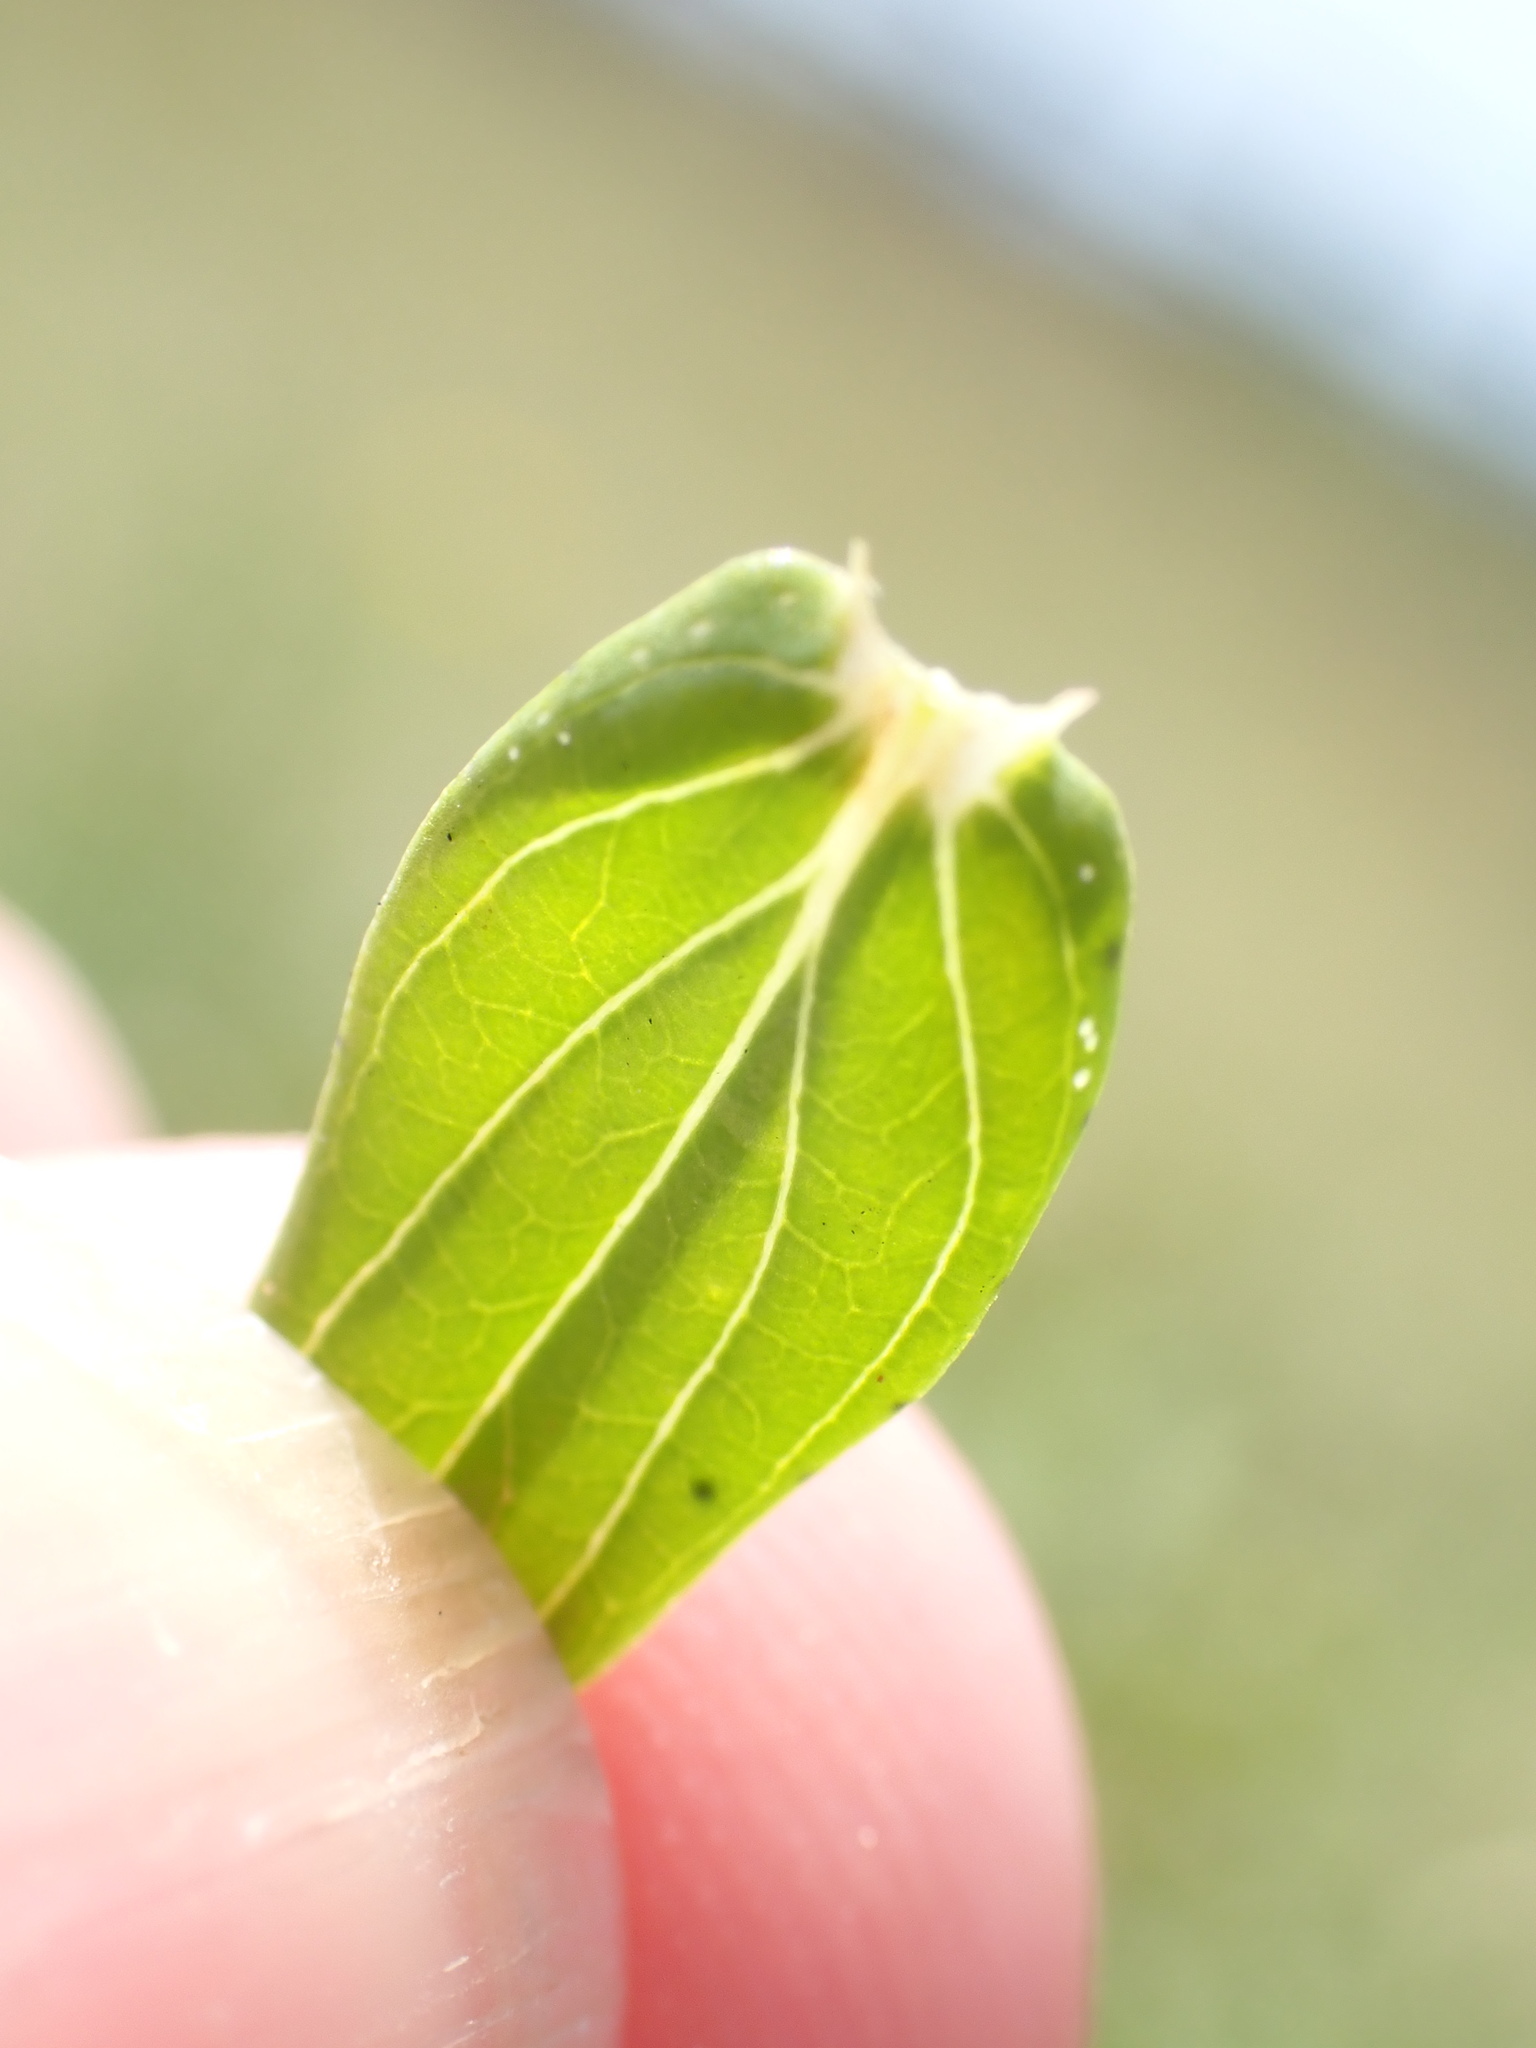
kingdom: Plantae
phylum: Tracheophyta
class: Magnoliopsida
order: Malpighiales
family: Hypericaceae
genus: Hypericum
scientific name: Hypericum perforatum
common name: Common st. johnswort
